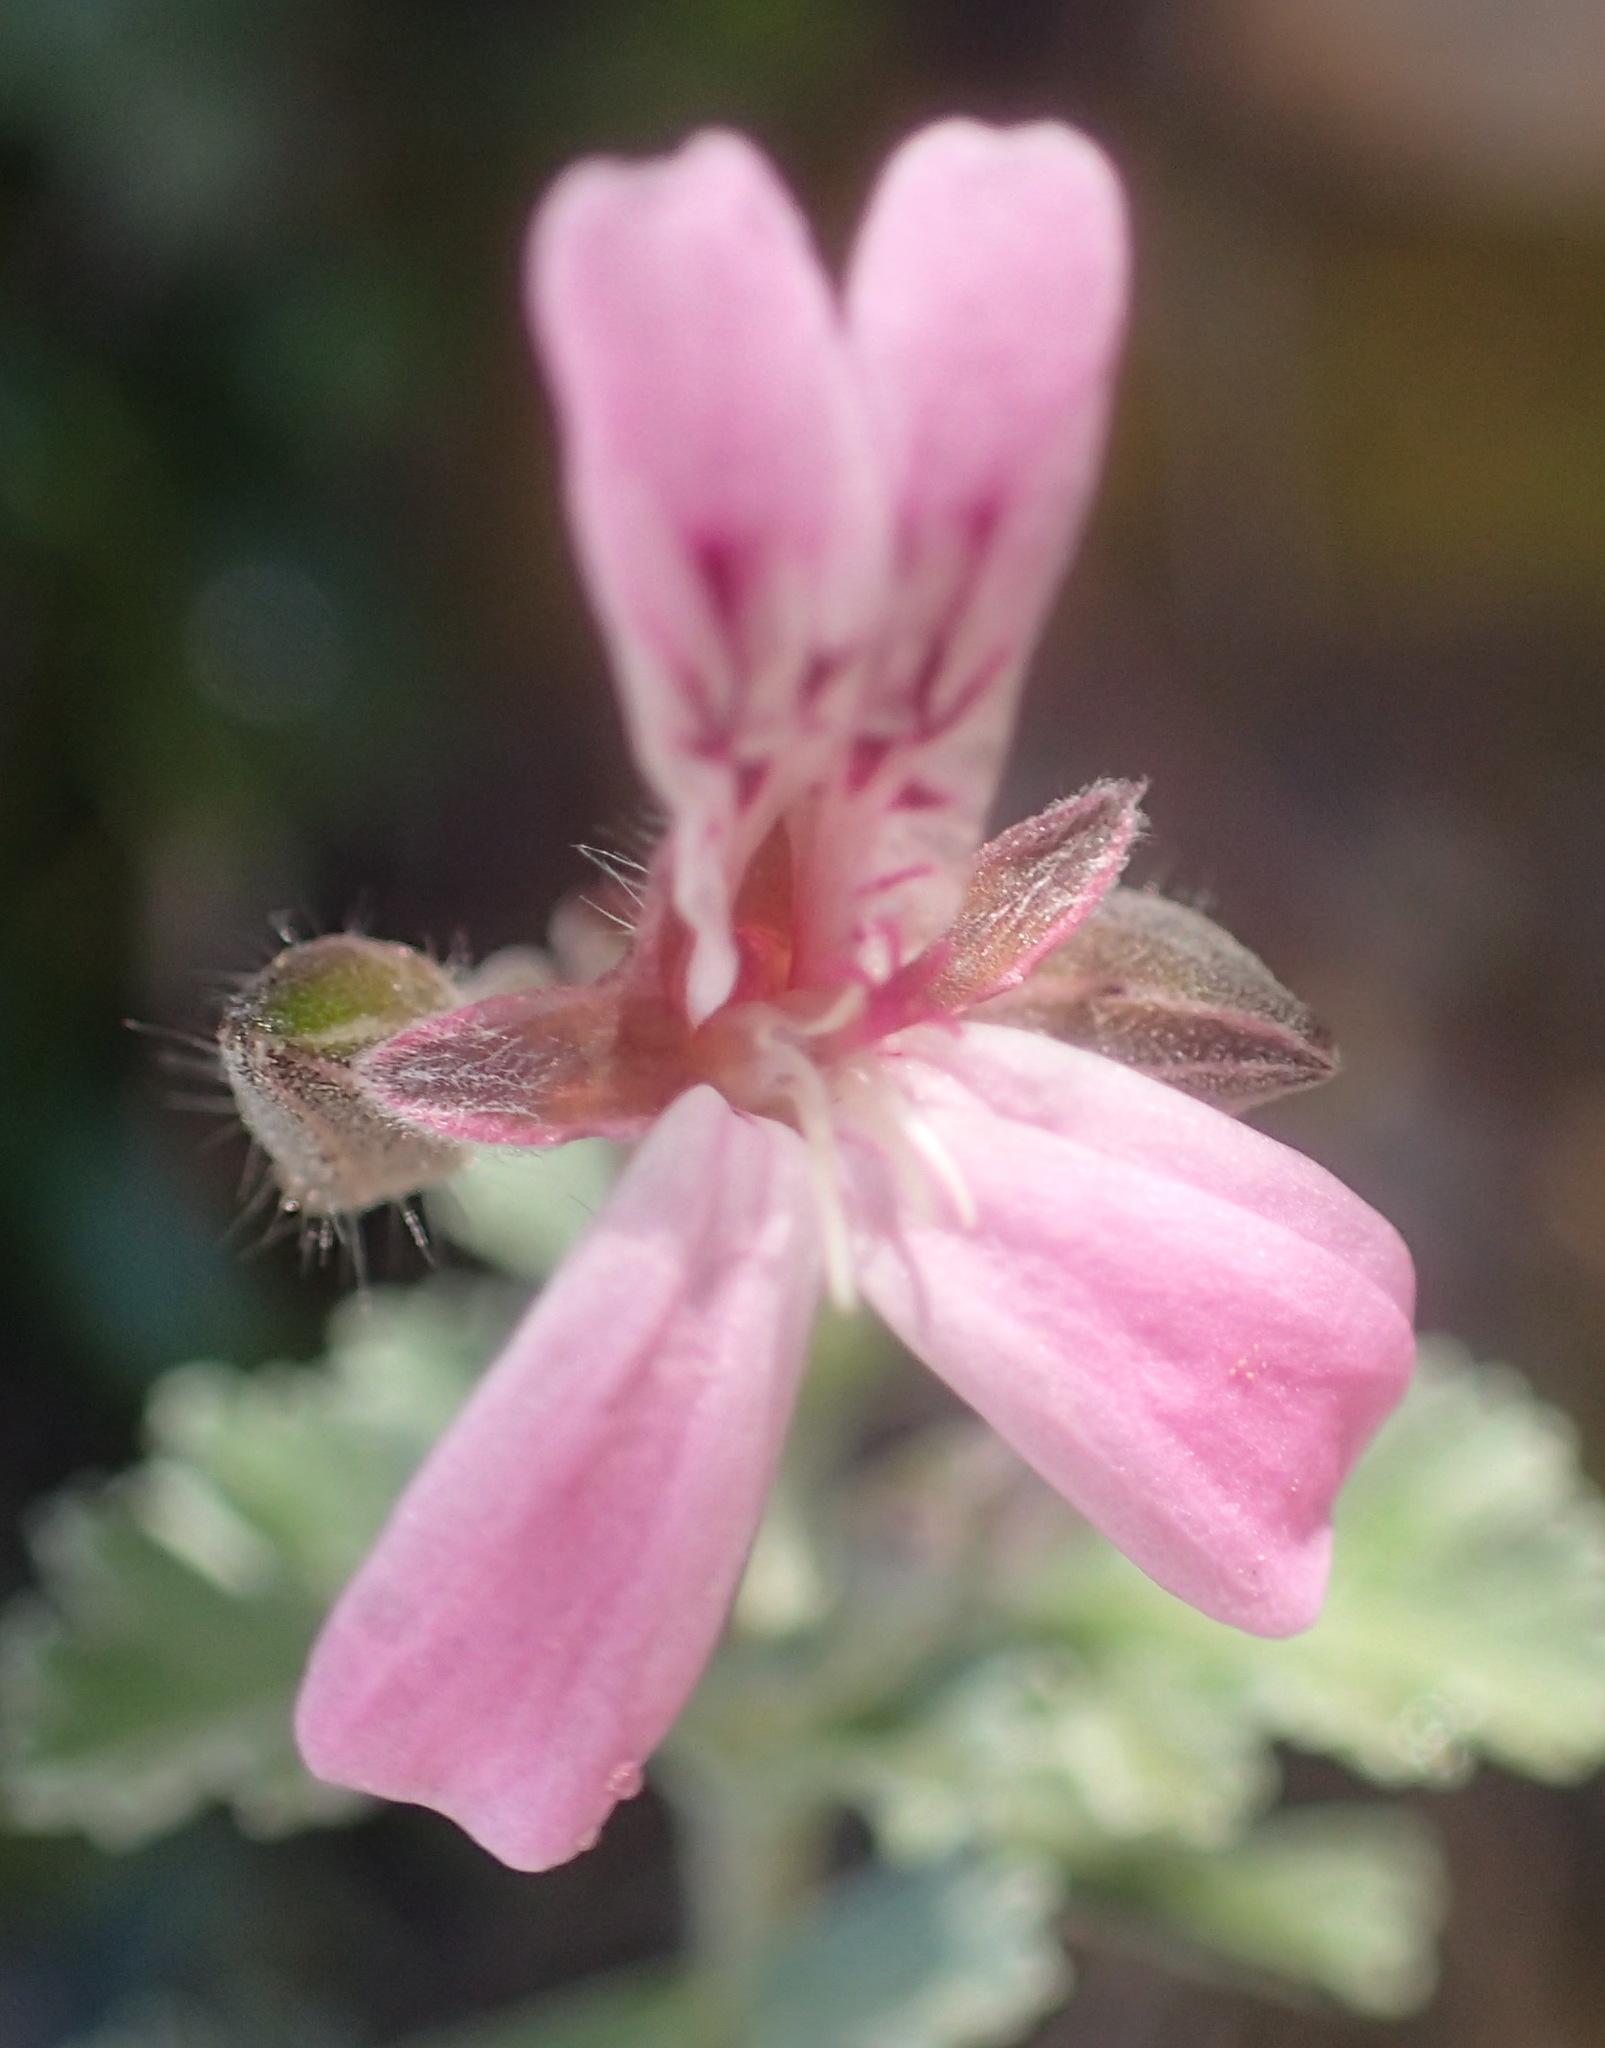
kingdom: Plantae
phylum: Tracheophyta
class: Magnoliopsida
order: Geraniales
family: Geraniaceae
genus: Pelargonium
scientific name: Pelargonium exstipulatum
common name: Soft-leaf trifid pelargonium
